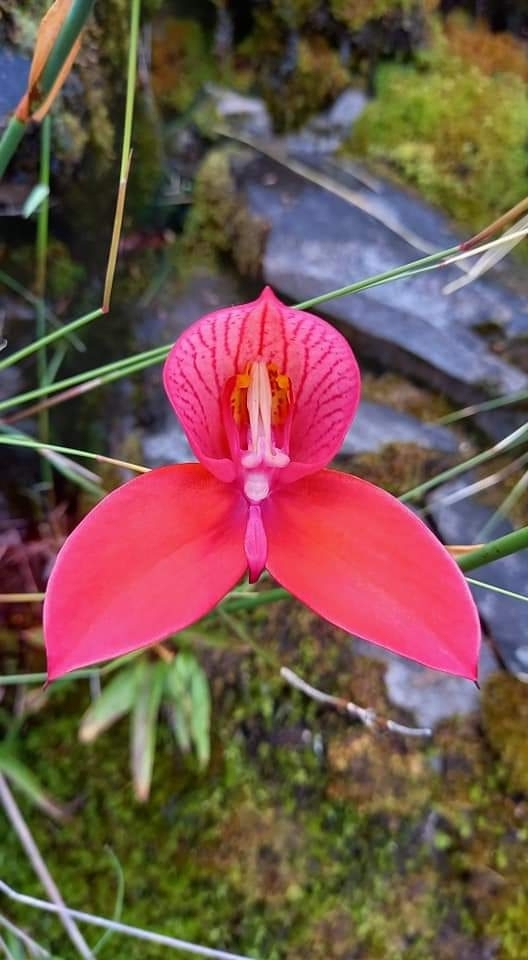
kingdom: Plantae
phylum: Tracheophyta
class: Liliopsida
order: Asparagales
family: Orchidaceae
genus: Disa
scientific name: Disa uniflora
